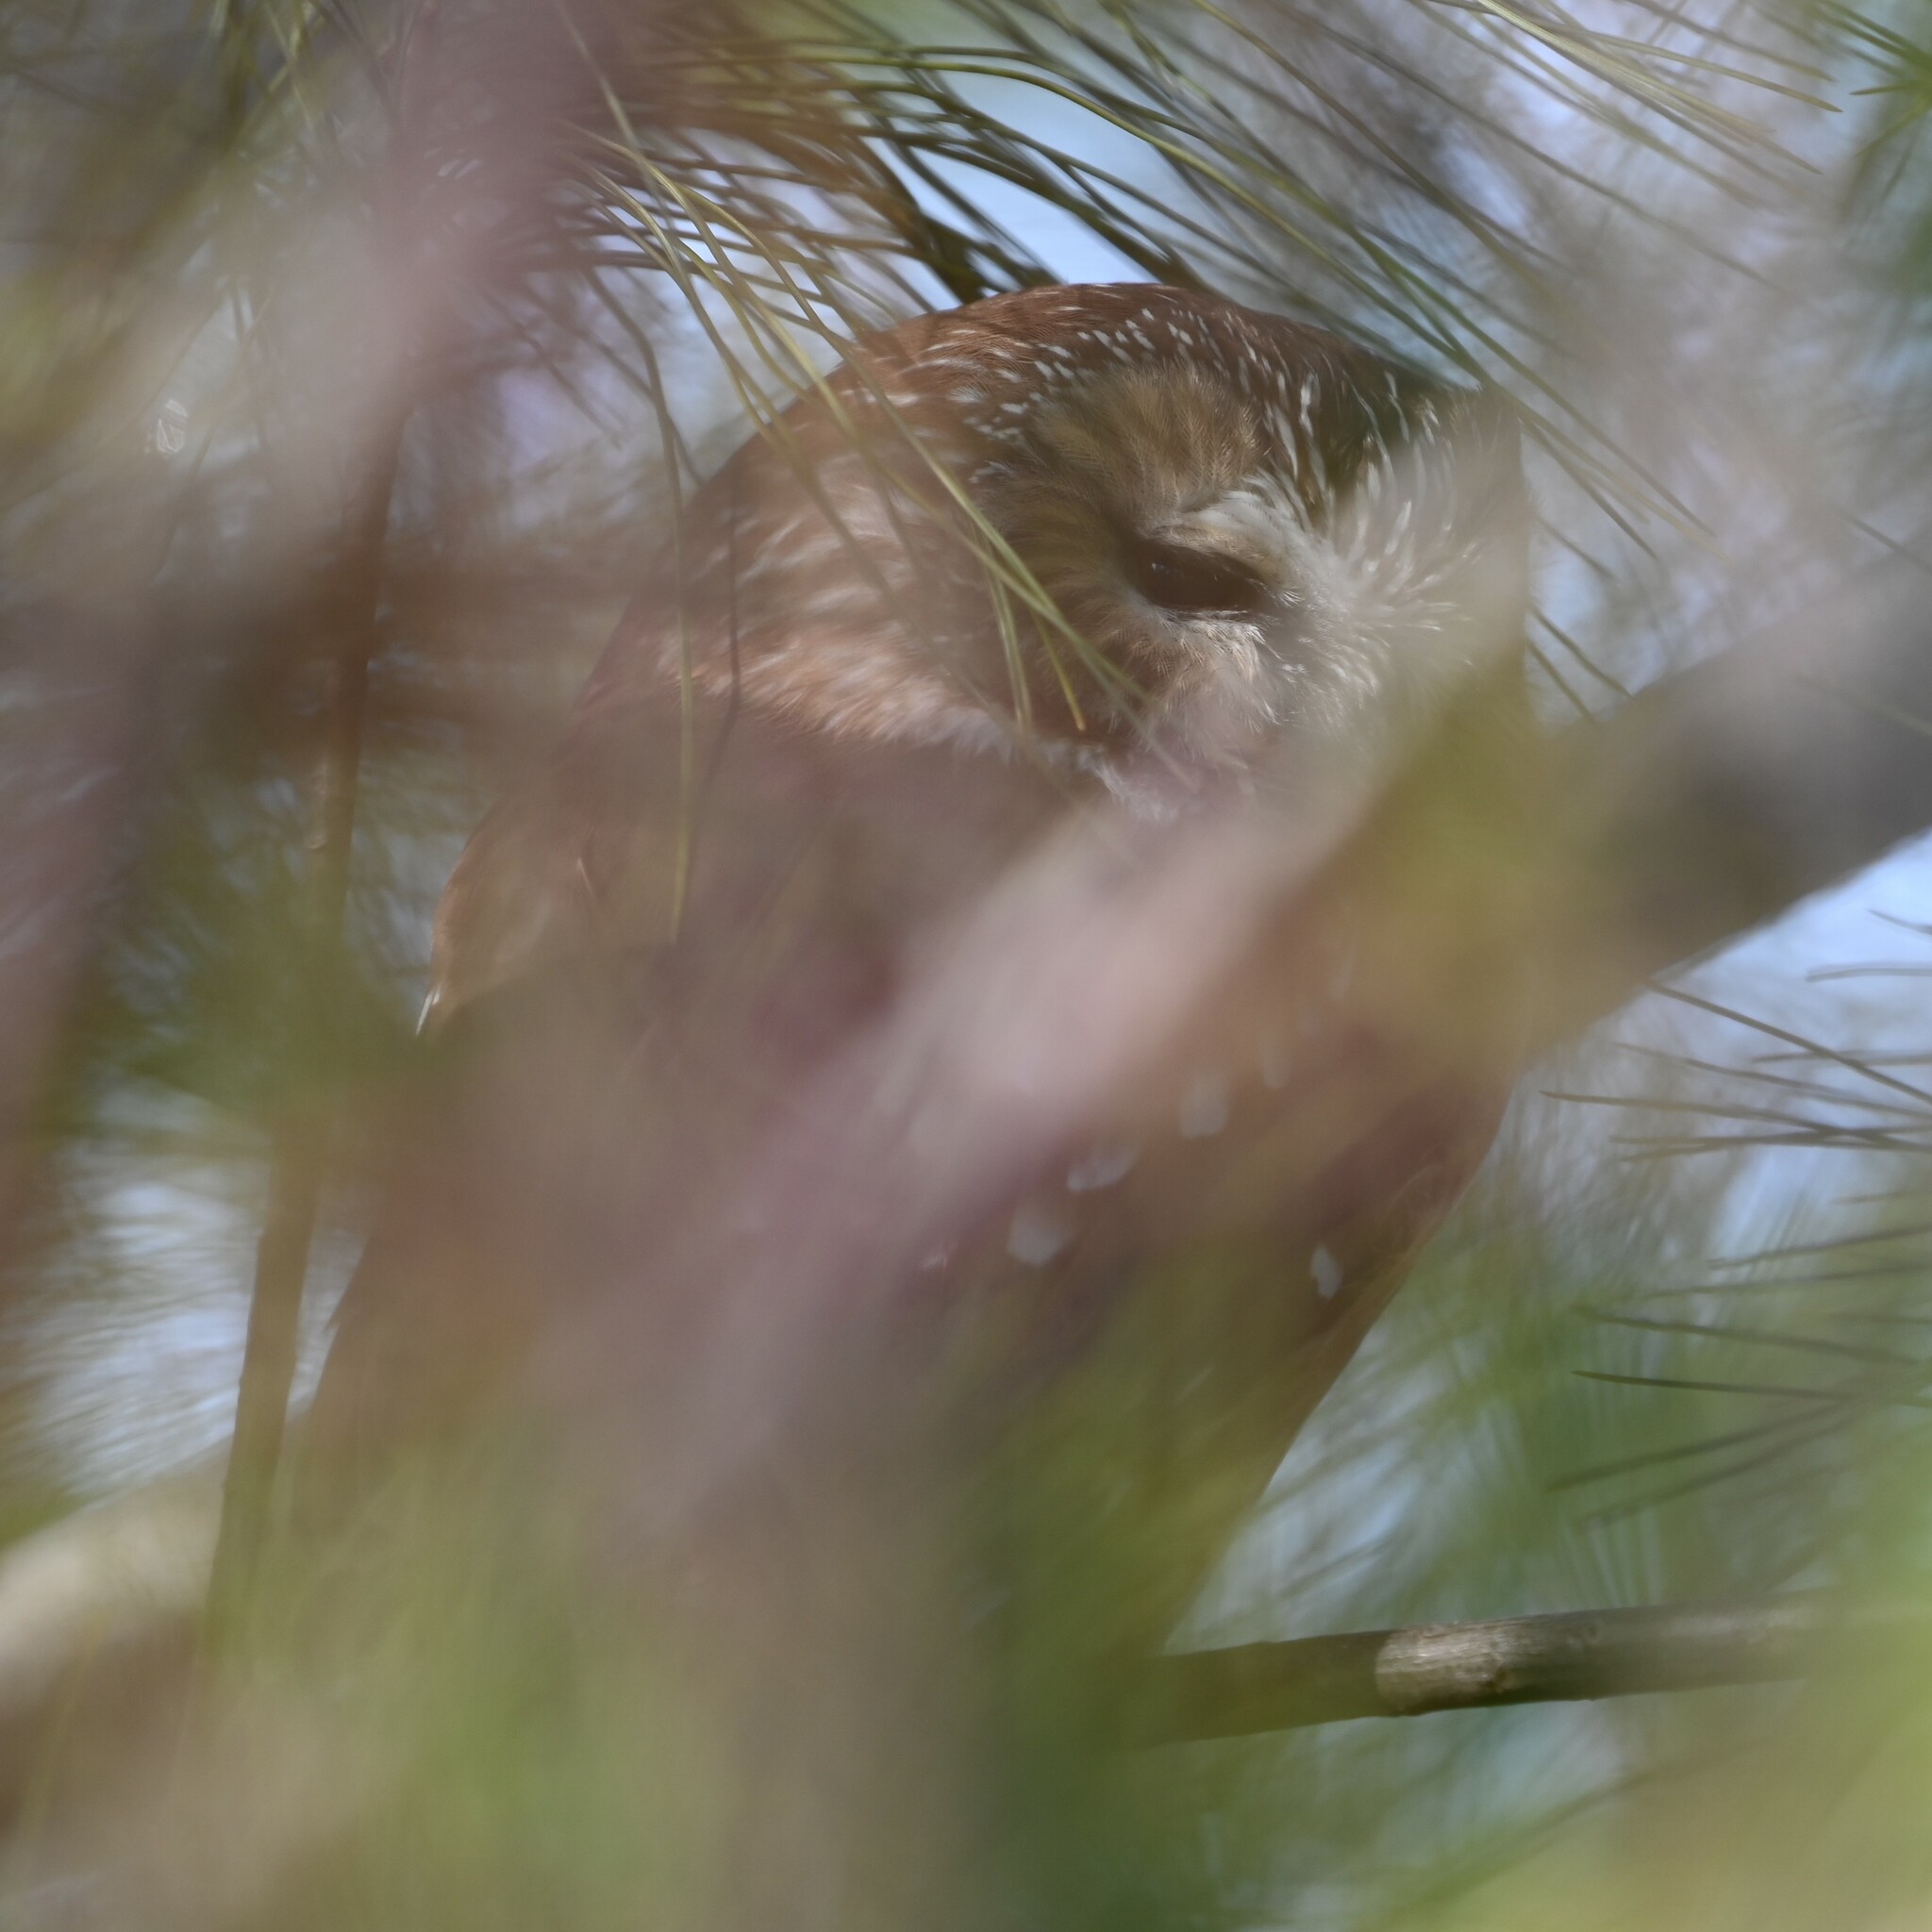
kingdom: Animalia
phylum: Chordata
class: Aves
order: Strigiformes
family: Strigidae
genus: Aegolius
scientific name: Aegolius acadicus
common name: Northern saw-whet owl
